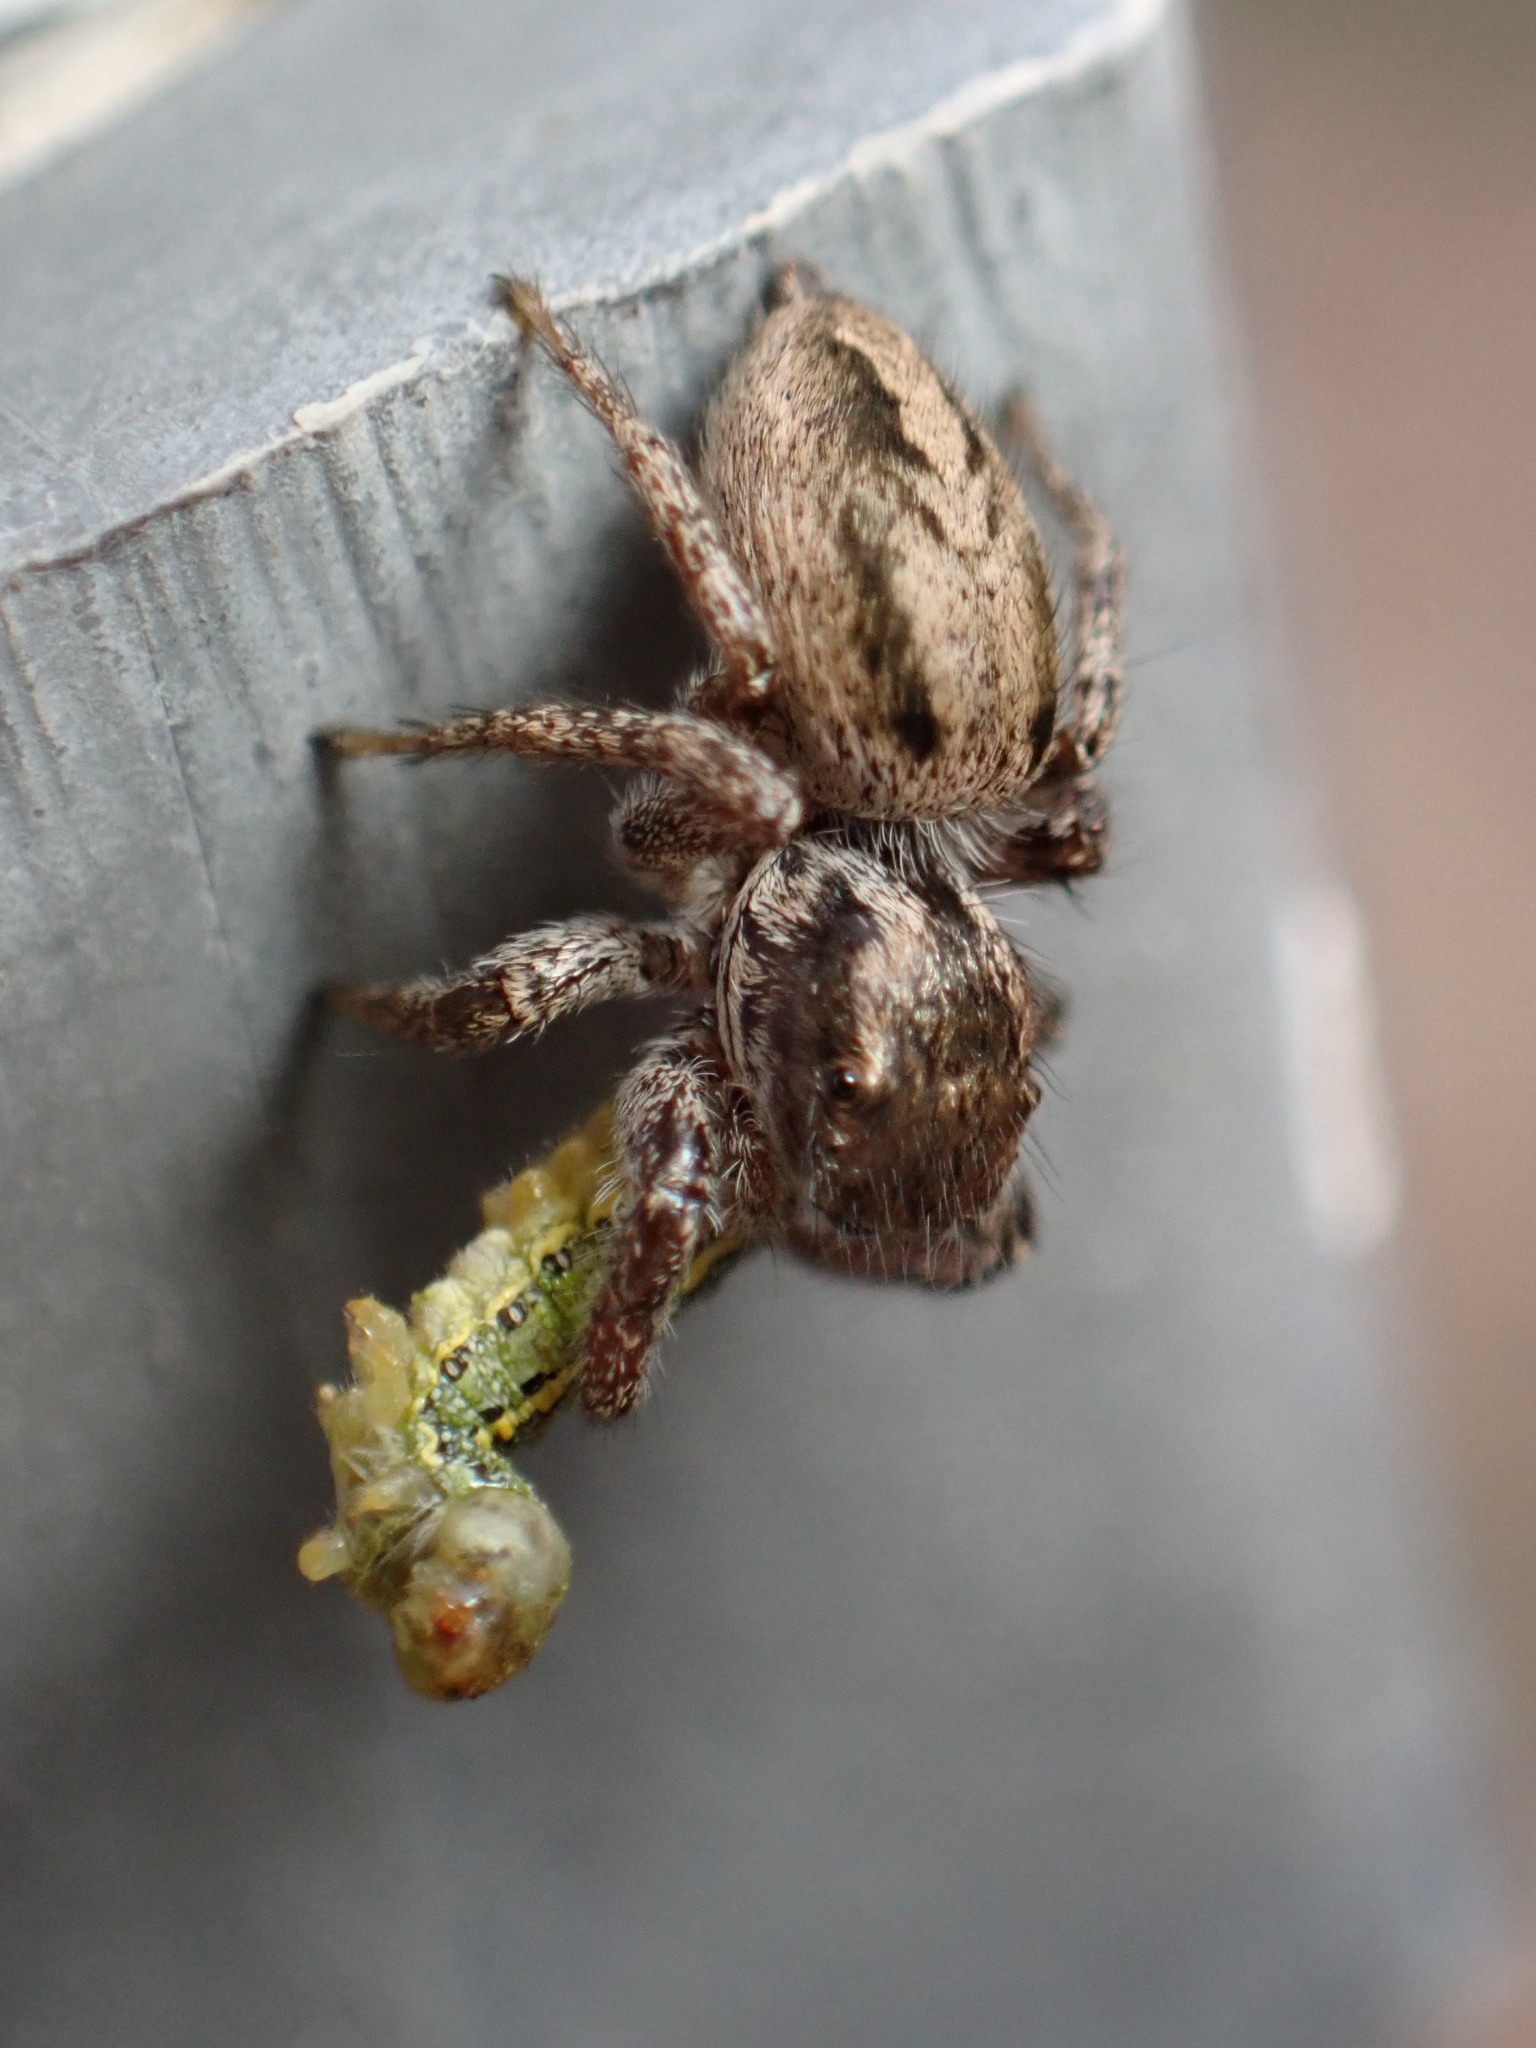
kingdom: Animalia
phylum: Arthropoda
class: Arachnida
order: Araneae
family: Salticidae
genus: Habronattus
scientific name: Habronattus pyrrithrix
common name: Jumping spider
